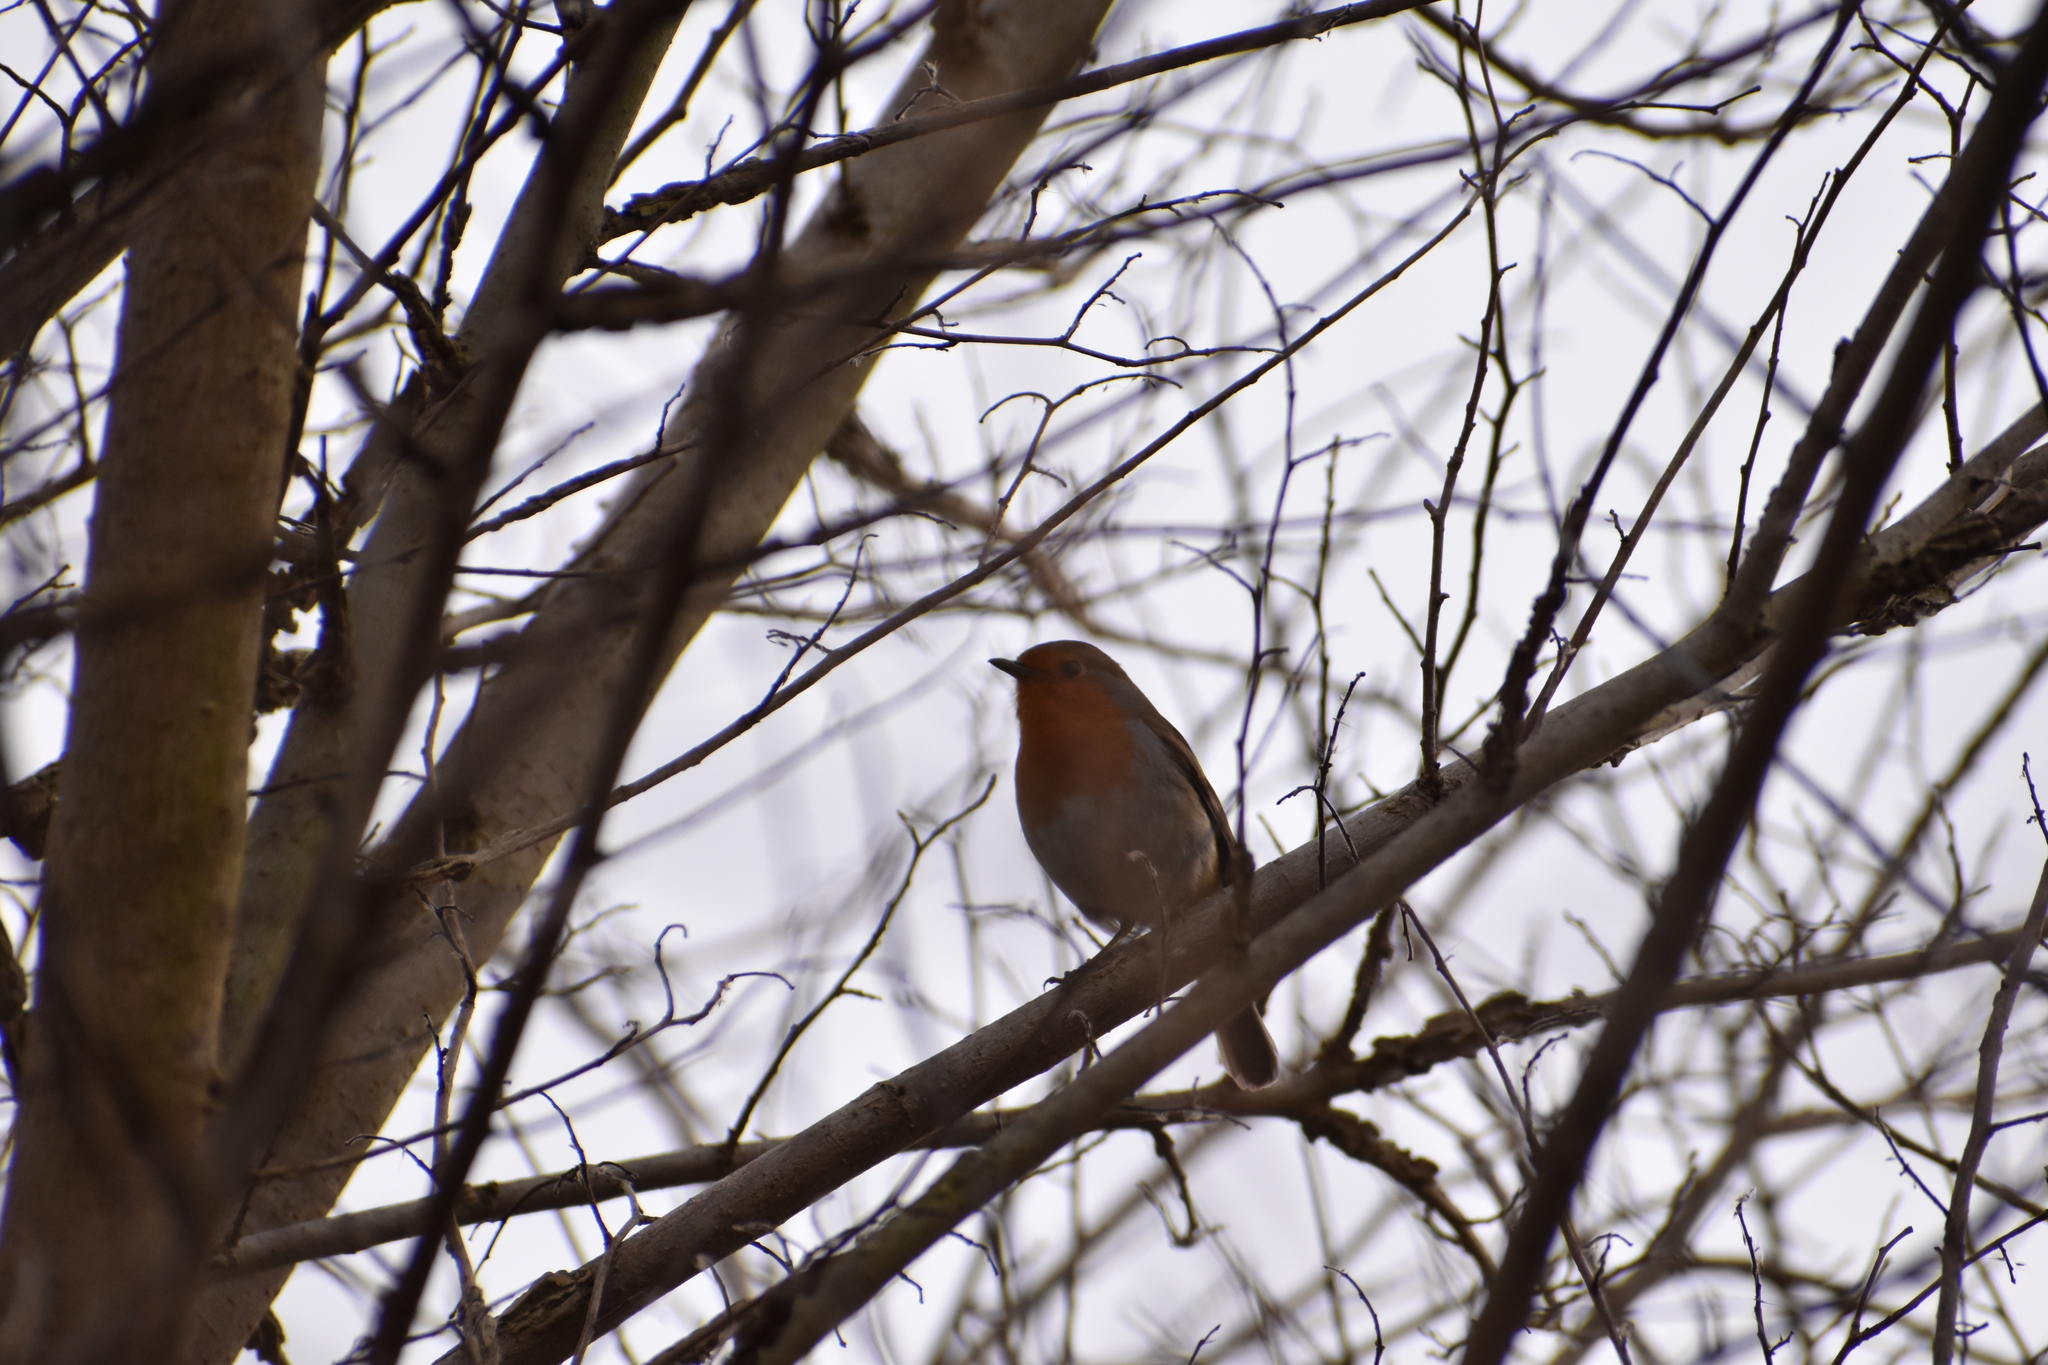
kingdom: Animalia
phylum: Chordata
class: Aves
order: Passeriformes
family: Muscicapidae
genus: Erithacus
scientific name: Erithacus rubecula
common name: European robin
